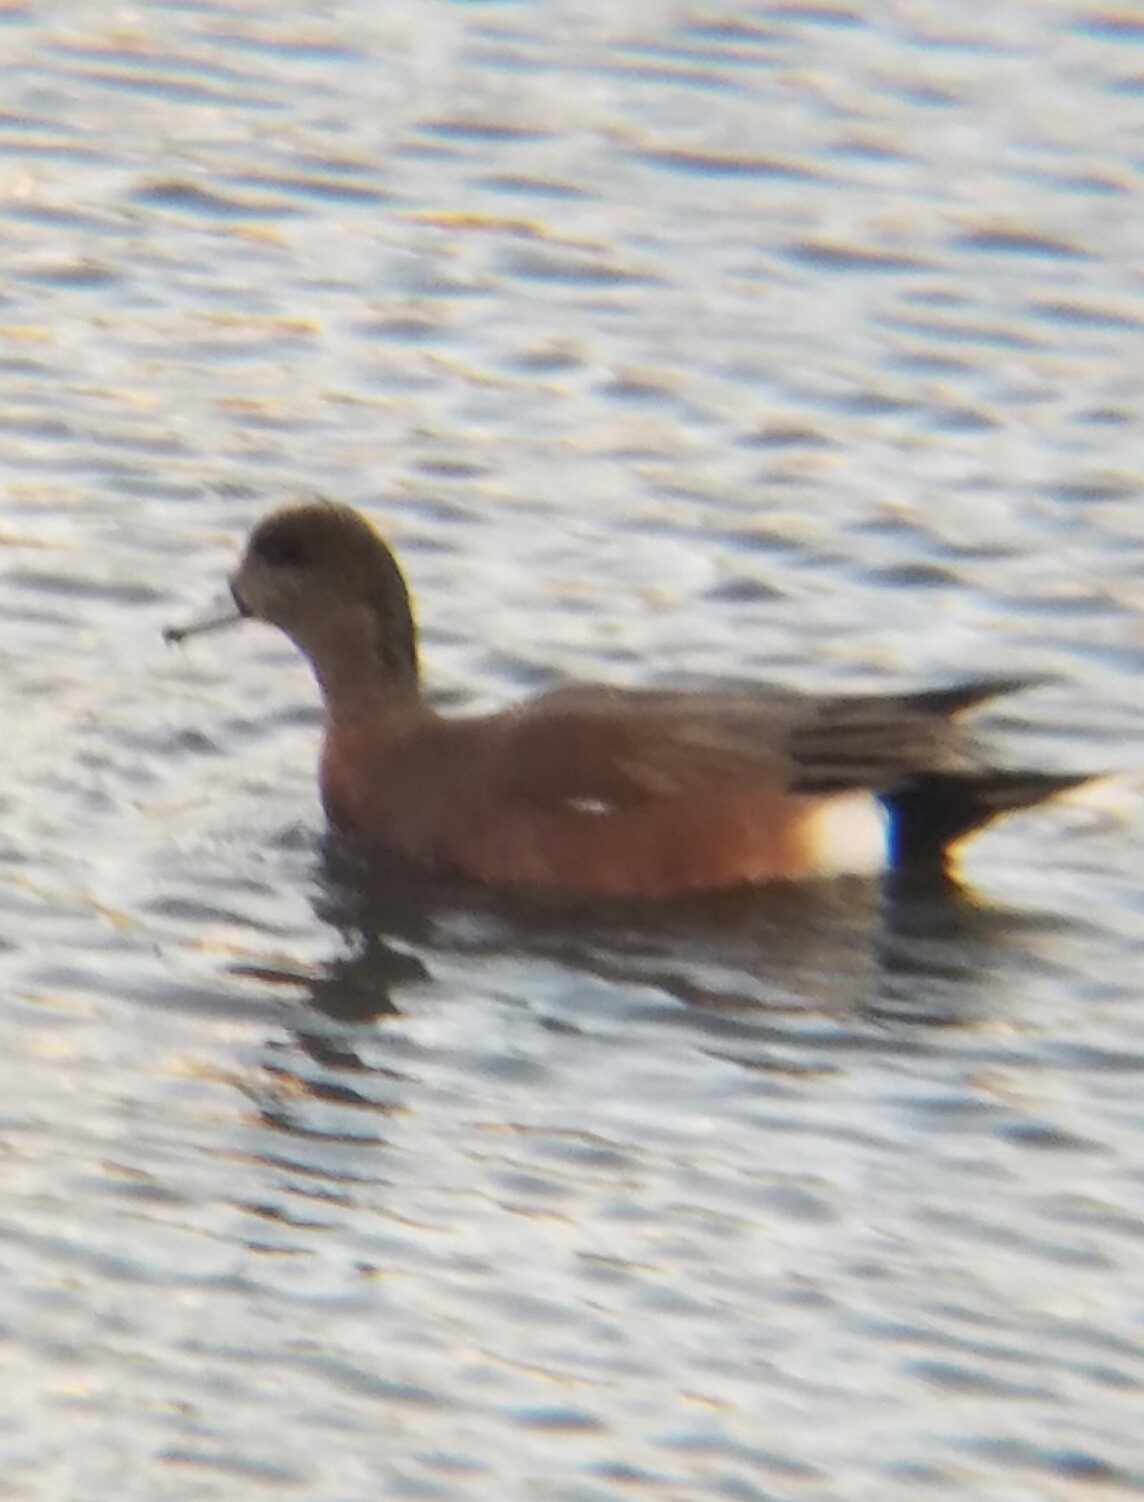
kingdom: Animalia
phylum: Chordata
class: Aves
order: Anseriformes
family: Anatidae
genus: Mareca
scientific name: Mareca americana
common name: American wigeon
